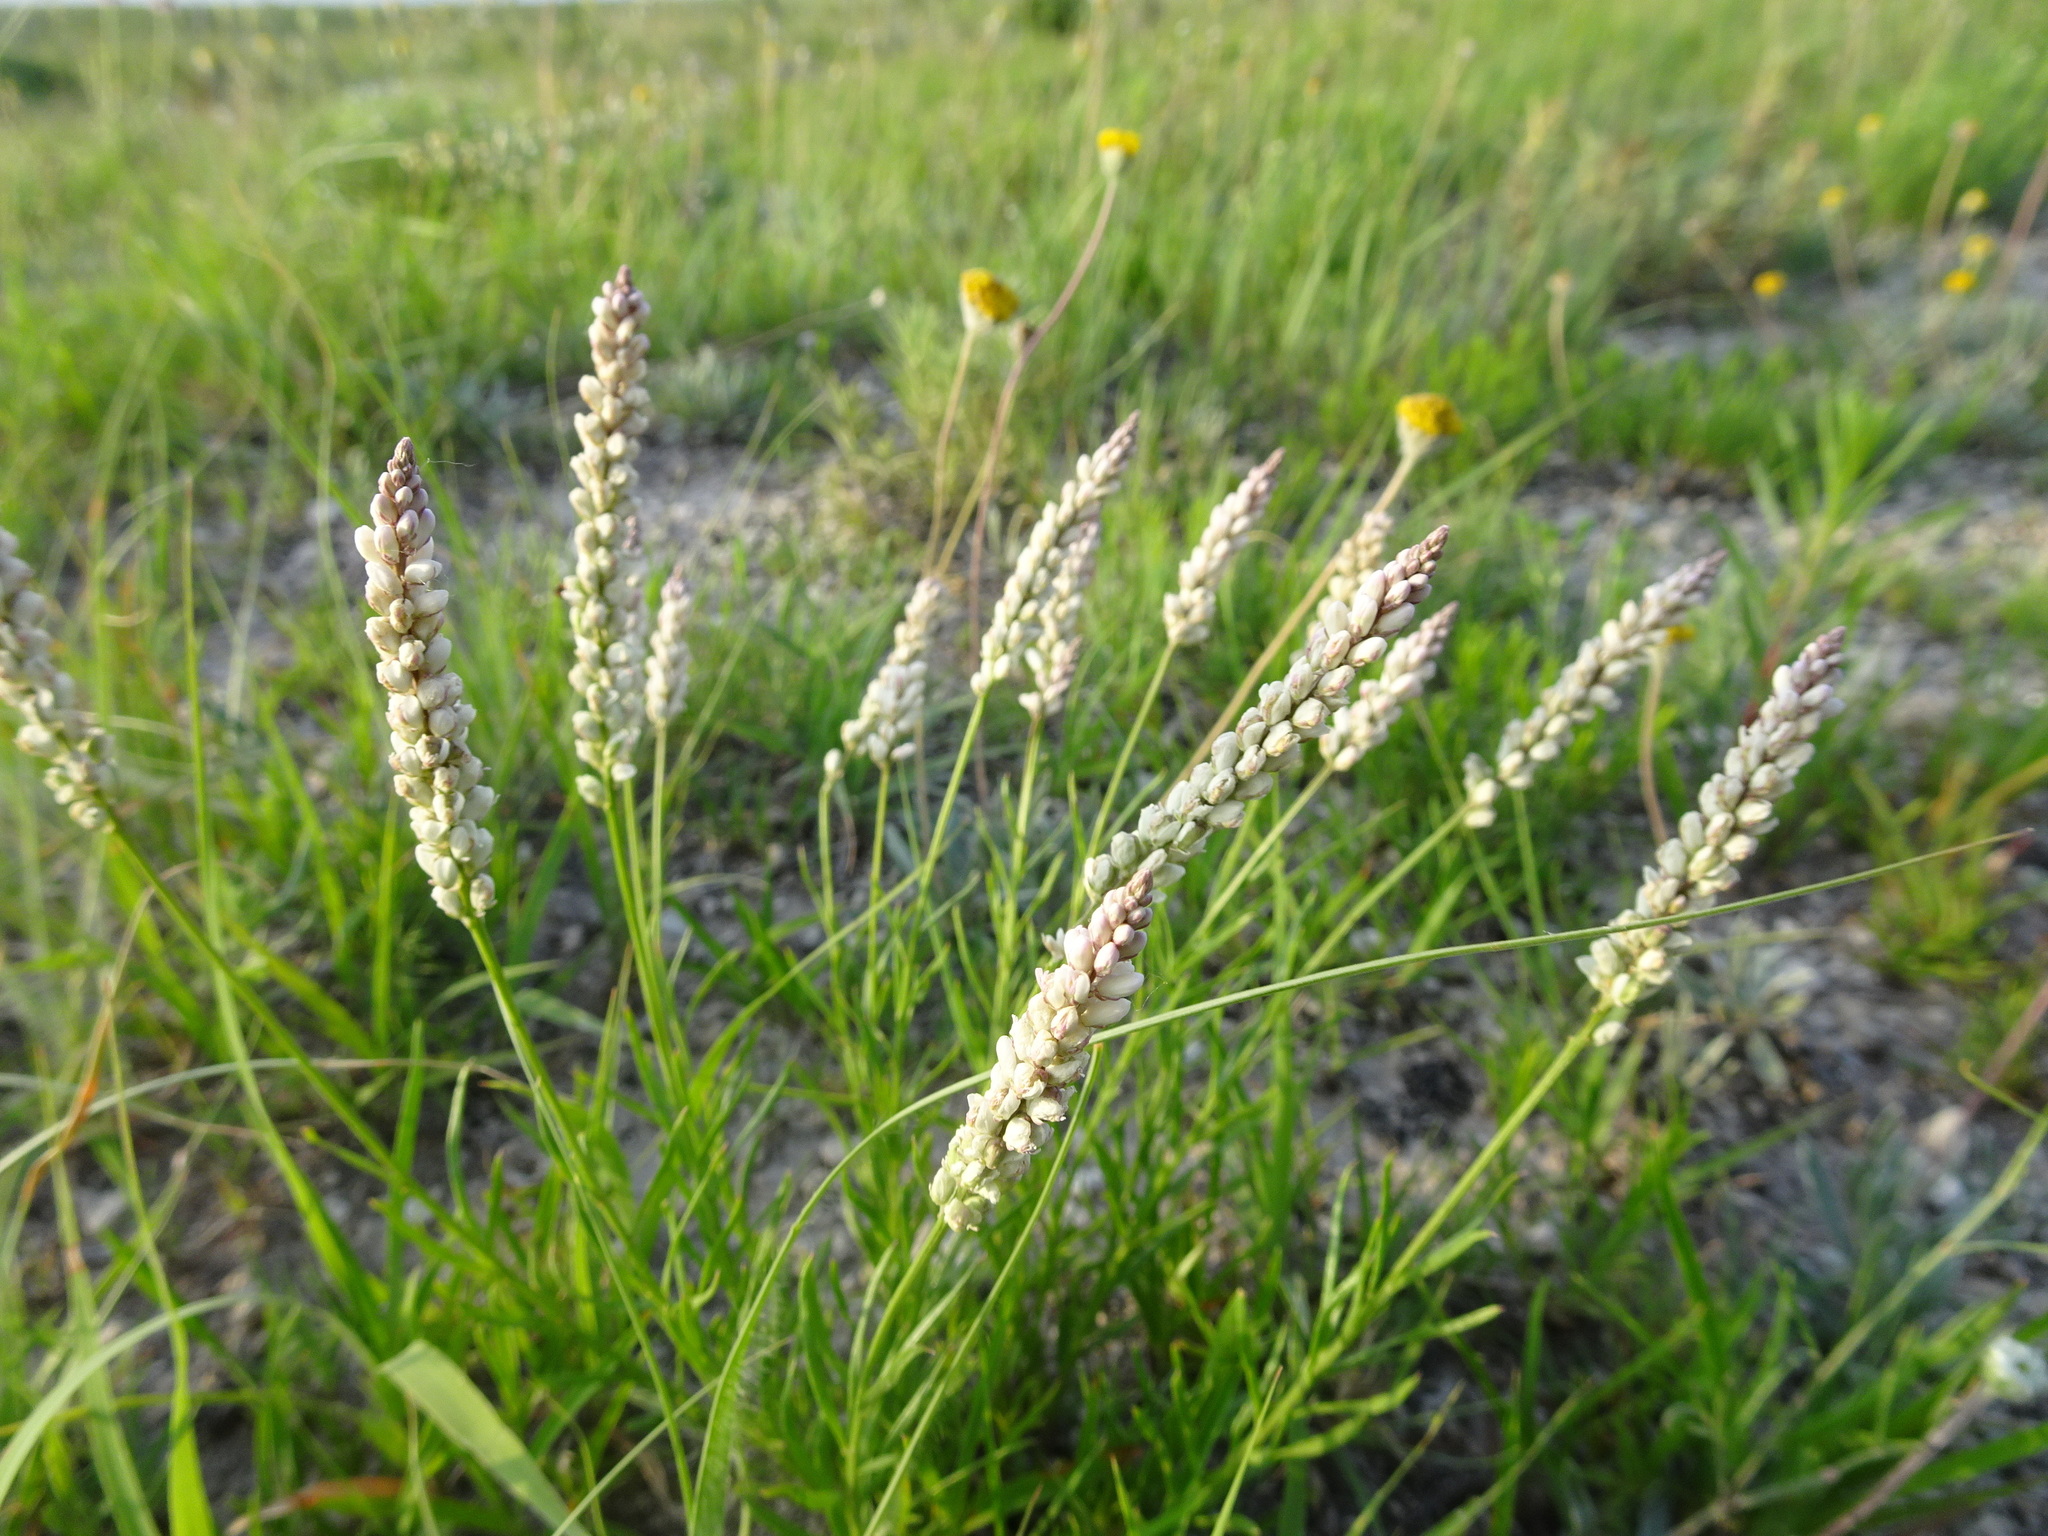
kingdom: Plantae
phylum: Tracheophyta
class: Magnoliopsida
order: Fabales
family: Polygalaceae
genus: Polygala
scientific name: Polygala alba
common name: White milkwort
